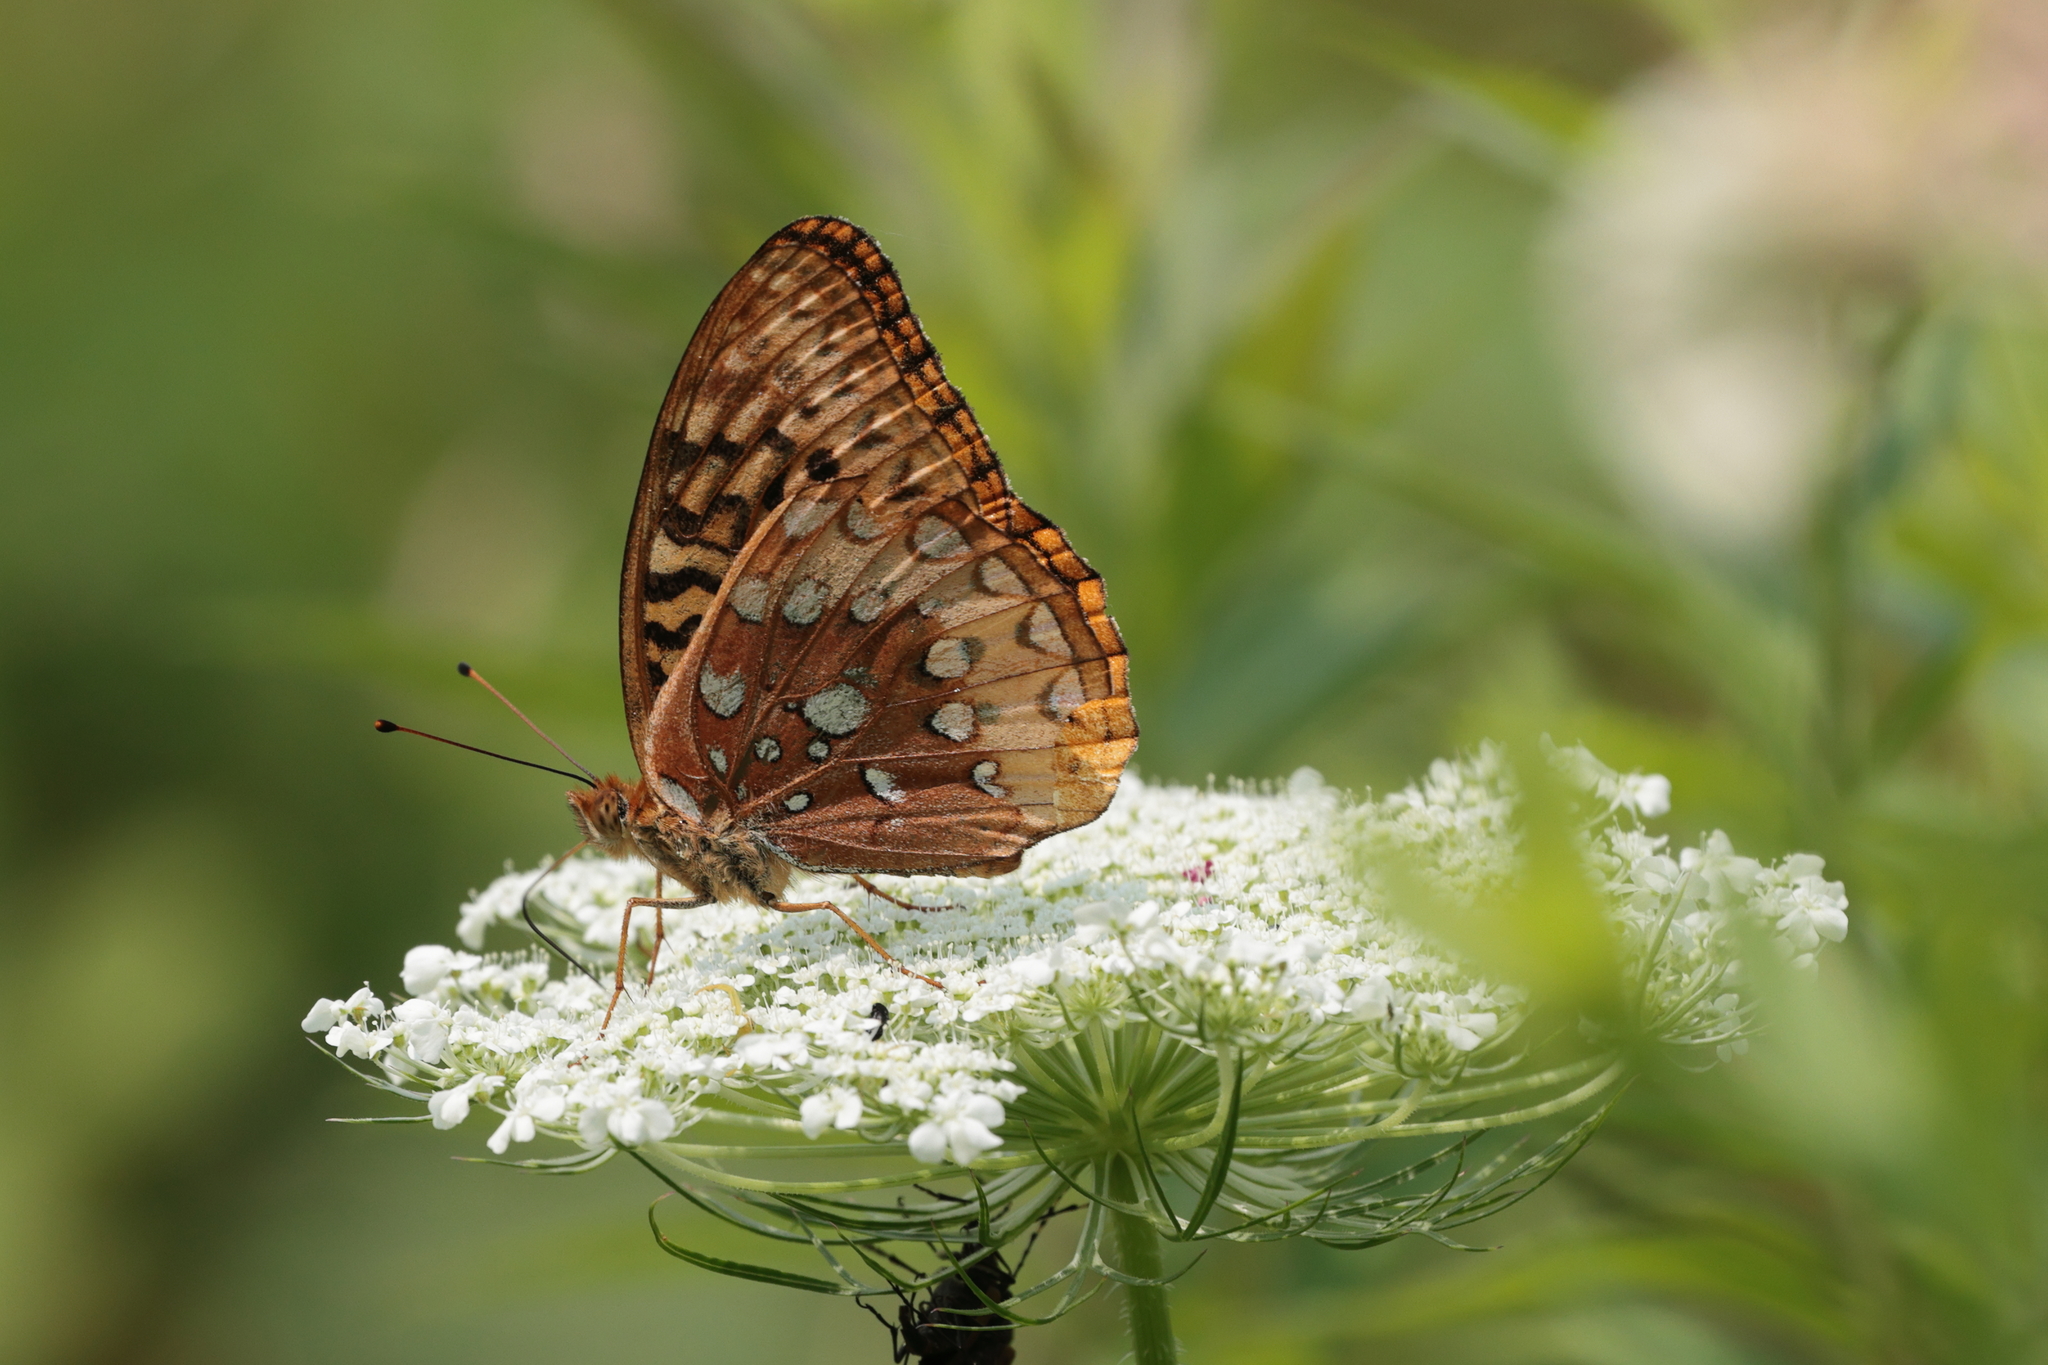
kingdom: Animalia
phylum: Arthropoda
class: Insecta
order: Lepidoptera
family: Nymphalidae
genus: Speyeria
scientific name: Speyeria cybele
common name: Great spangled fritillary
